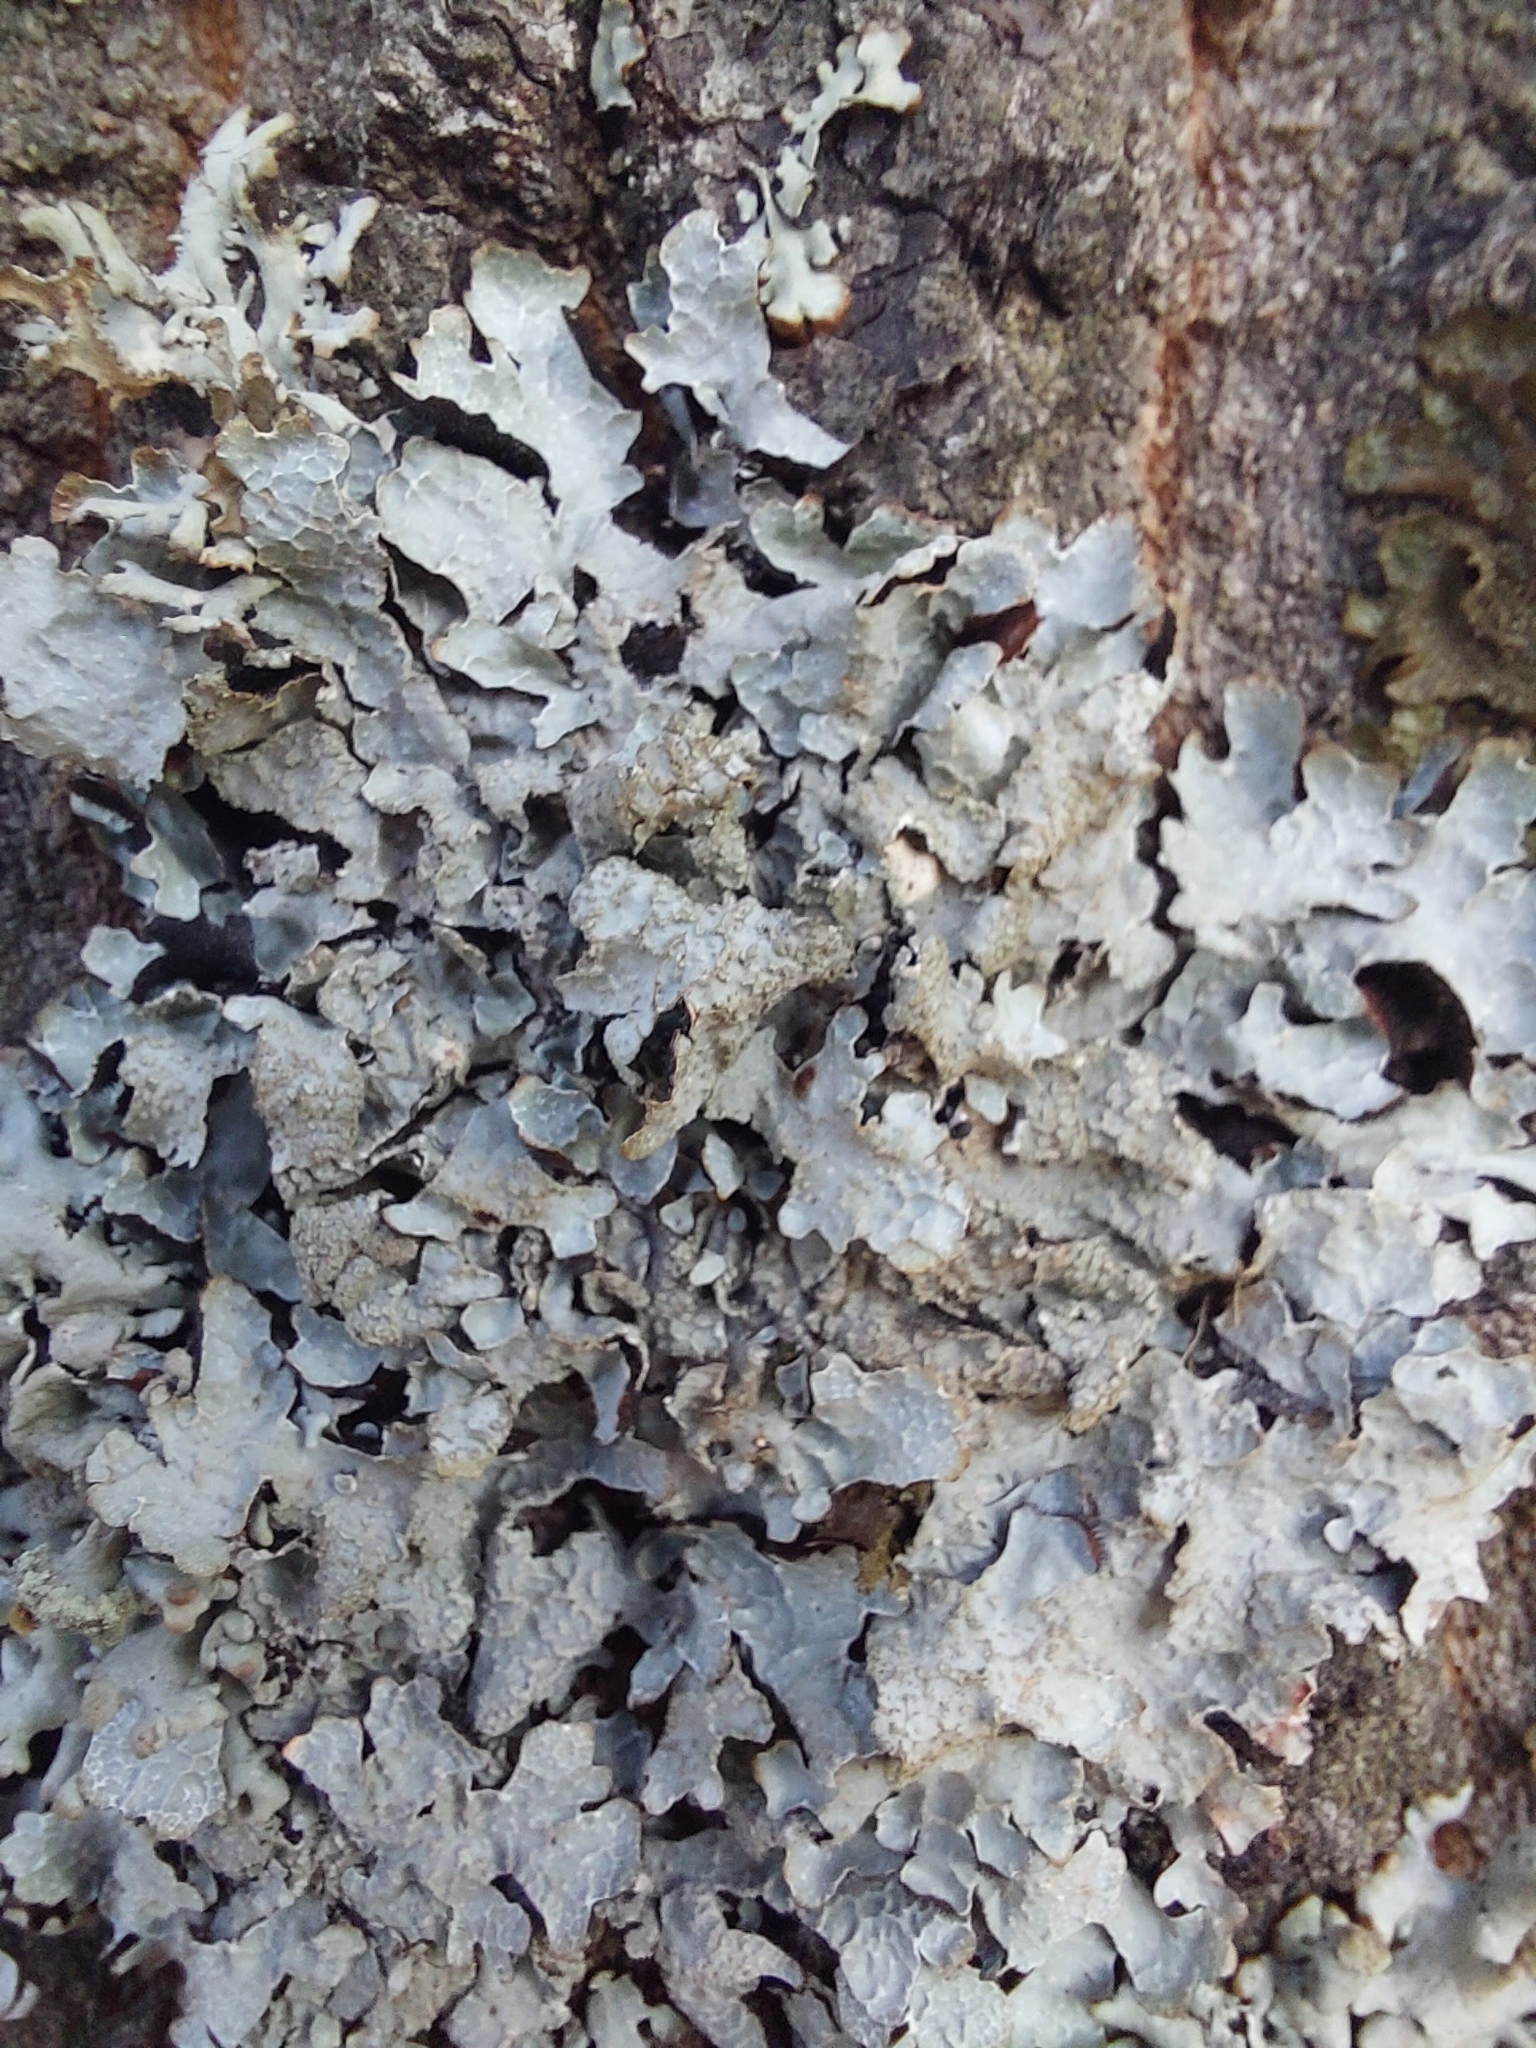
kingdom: Fungi
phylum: Ascomycota
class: Lecanoromycetes
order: Lecanorales
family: Parmeliaceae
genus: Parmelia
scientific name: Parmelia sulcata
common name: Netted shield lichen
